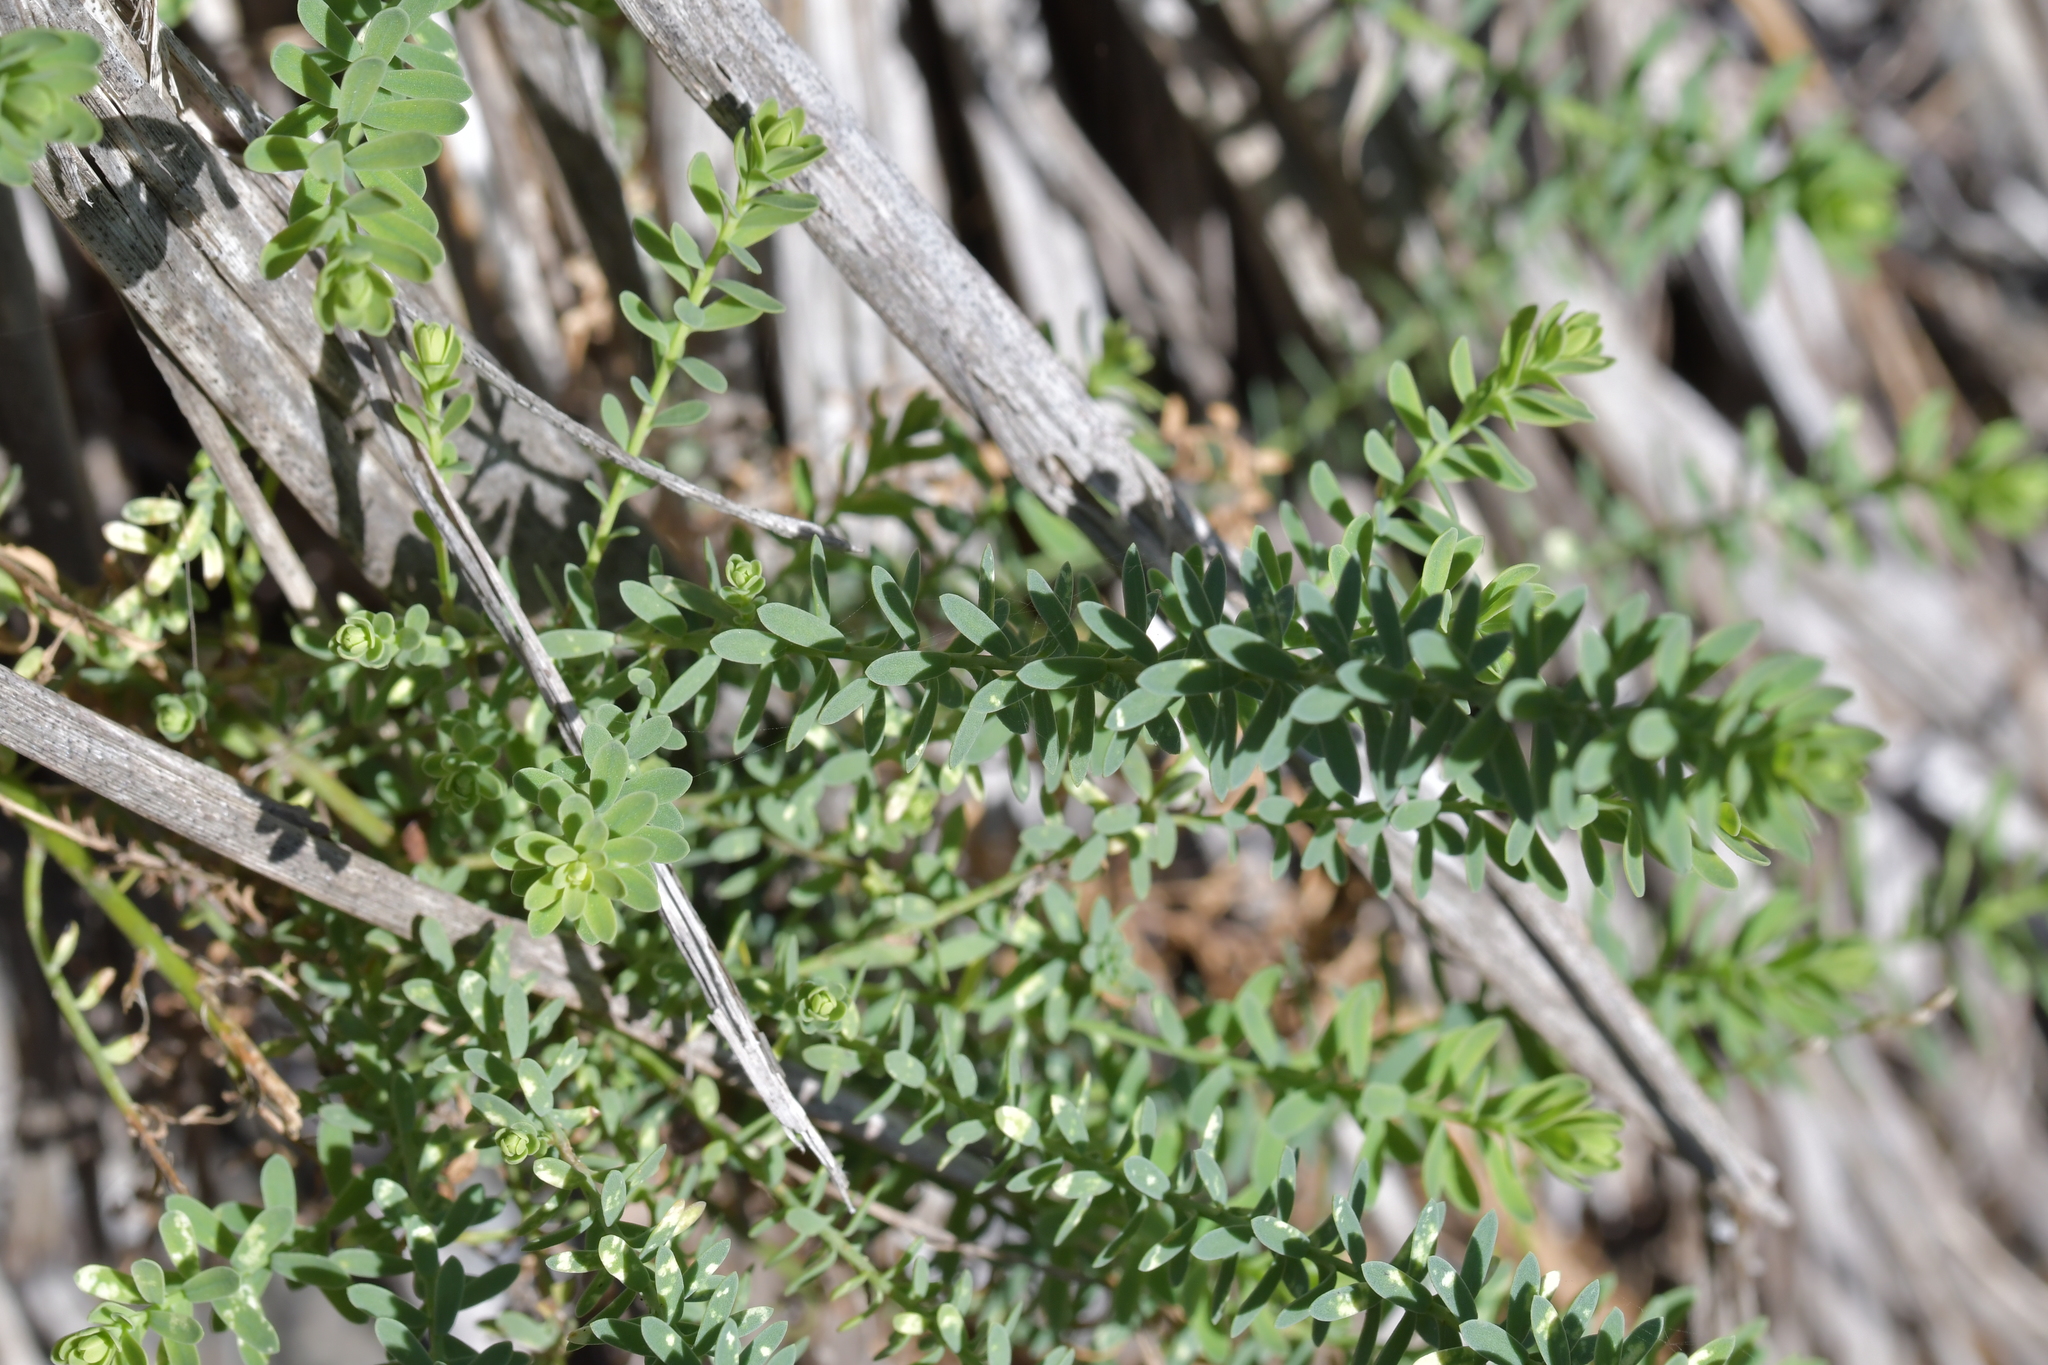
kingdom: Plantae
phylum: Tracheophyta
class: Magnoliopsida
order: Malpighiales
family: Linaceae
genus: Linum
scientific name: Linum monogynum
